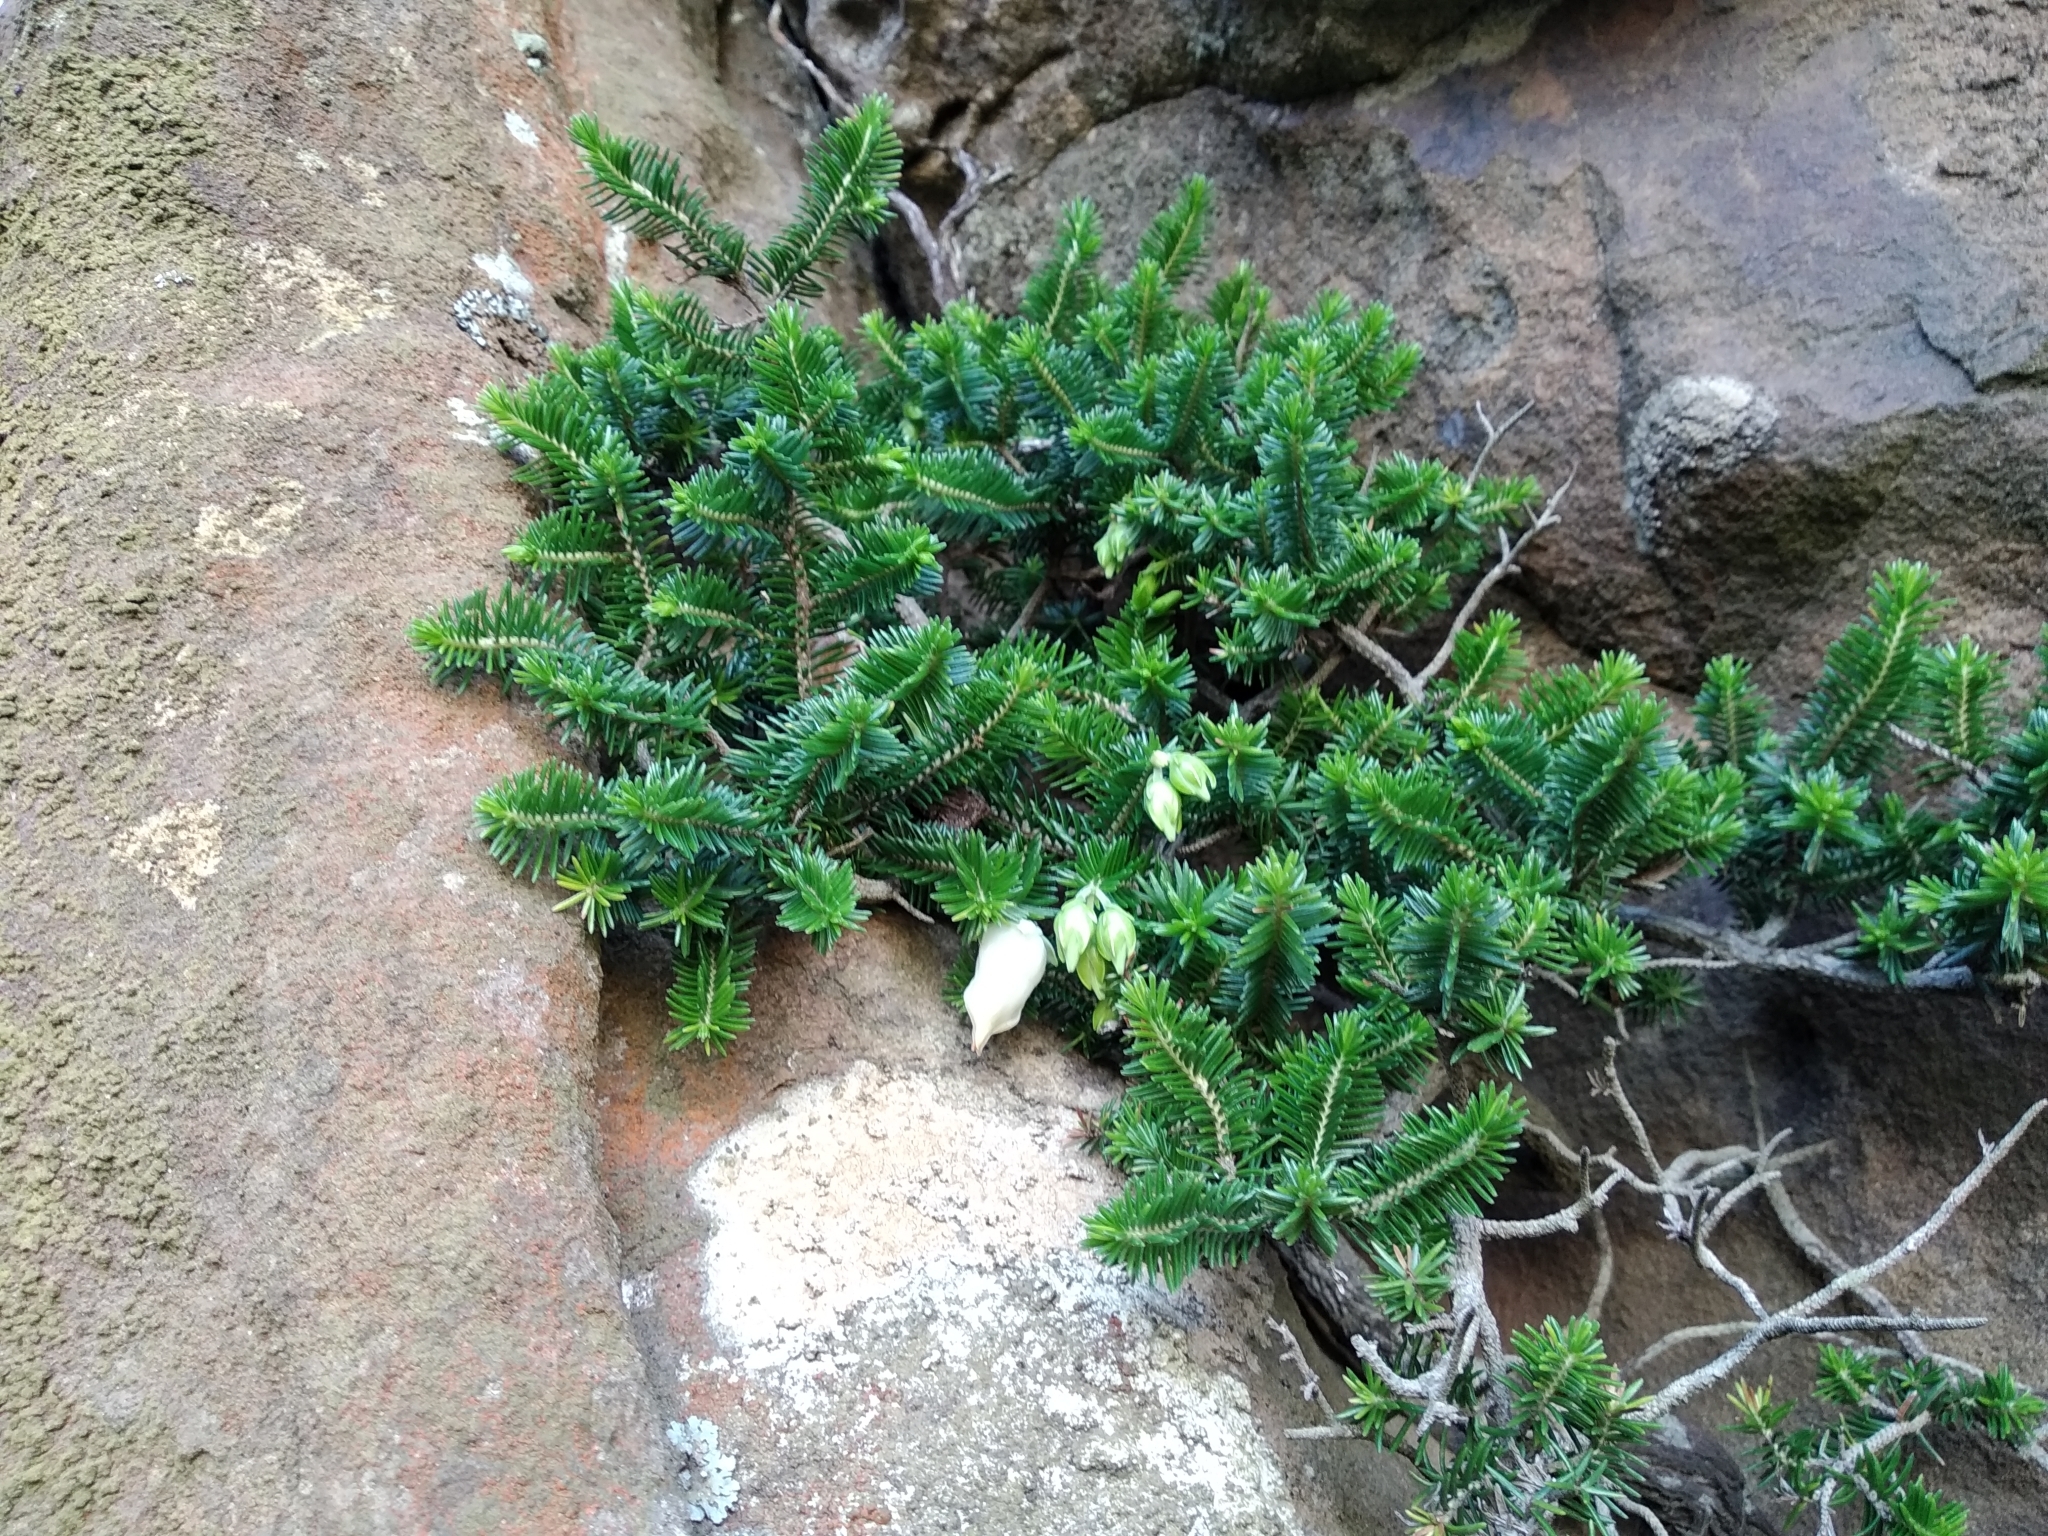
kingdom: Plantae
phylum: Tracheophyta
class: Magnoliopsida
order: Ericales
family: Ericaceae
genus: Erica
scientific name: Erica halicacaba
